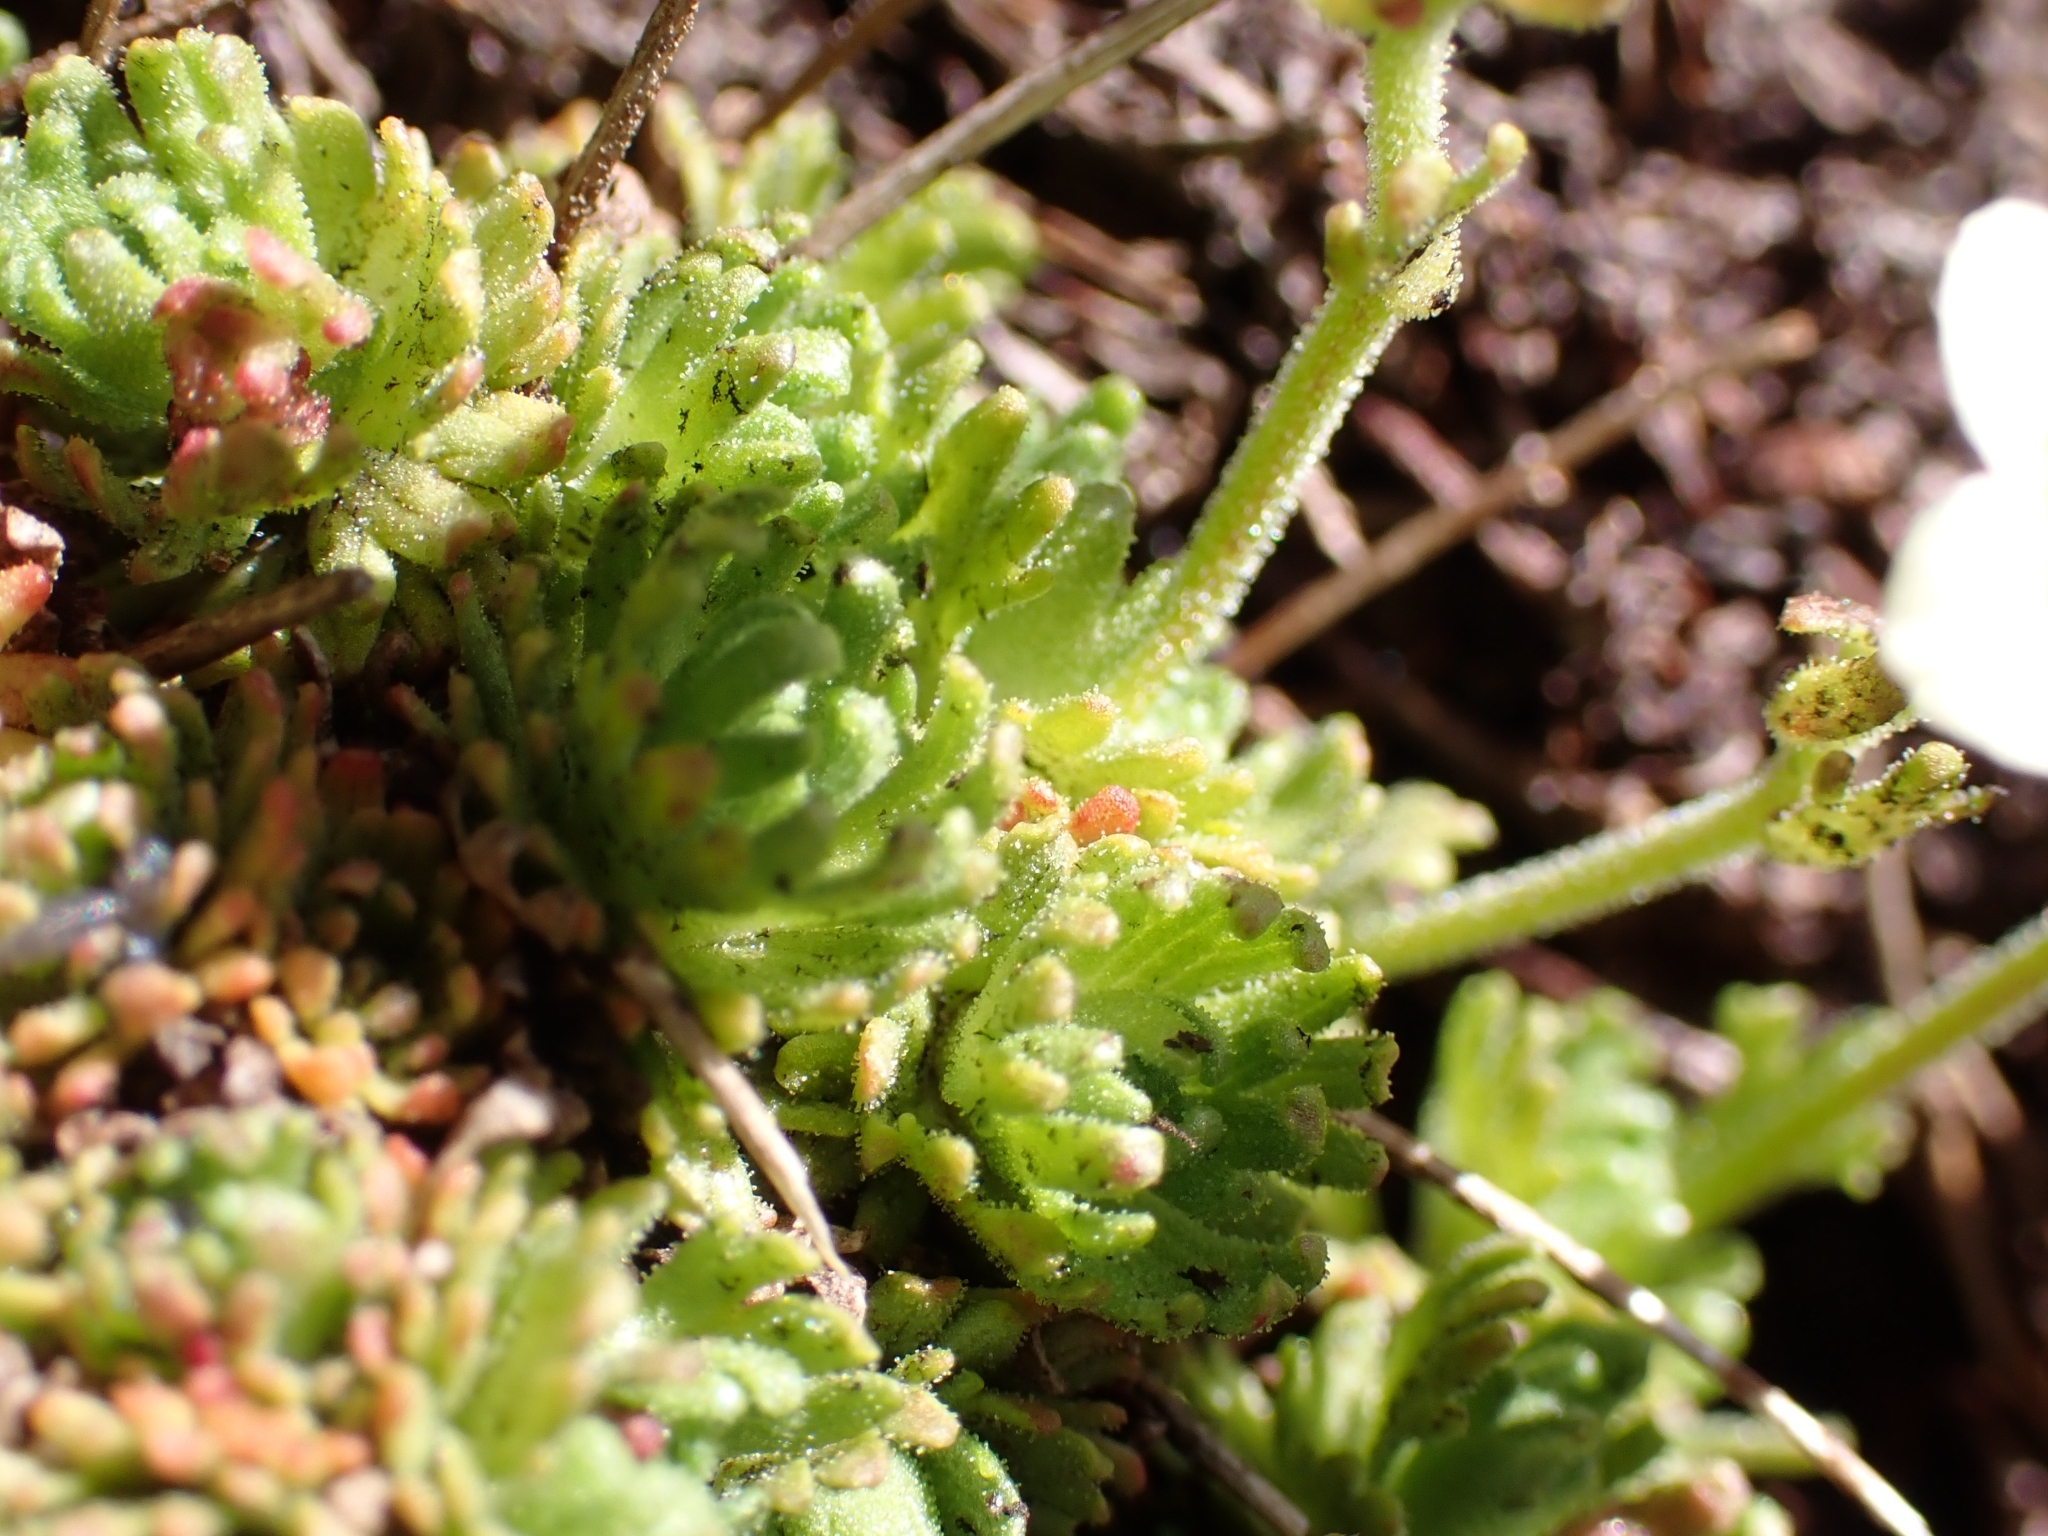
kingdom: Plantae
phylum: Tracheophyta
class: Magnoliopsida
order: Saxifragales
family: Saxifragaceae
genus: Saxifraga
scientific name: Saxifraga exarata
